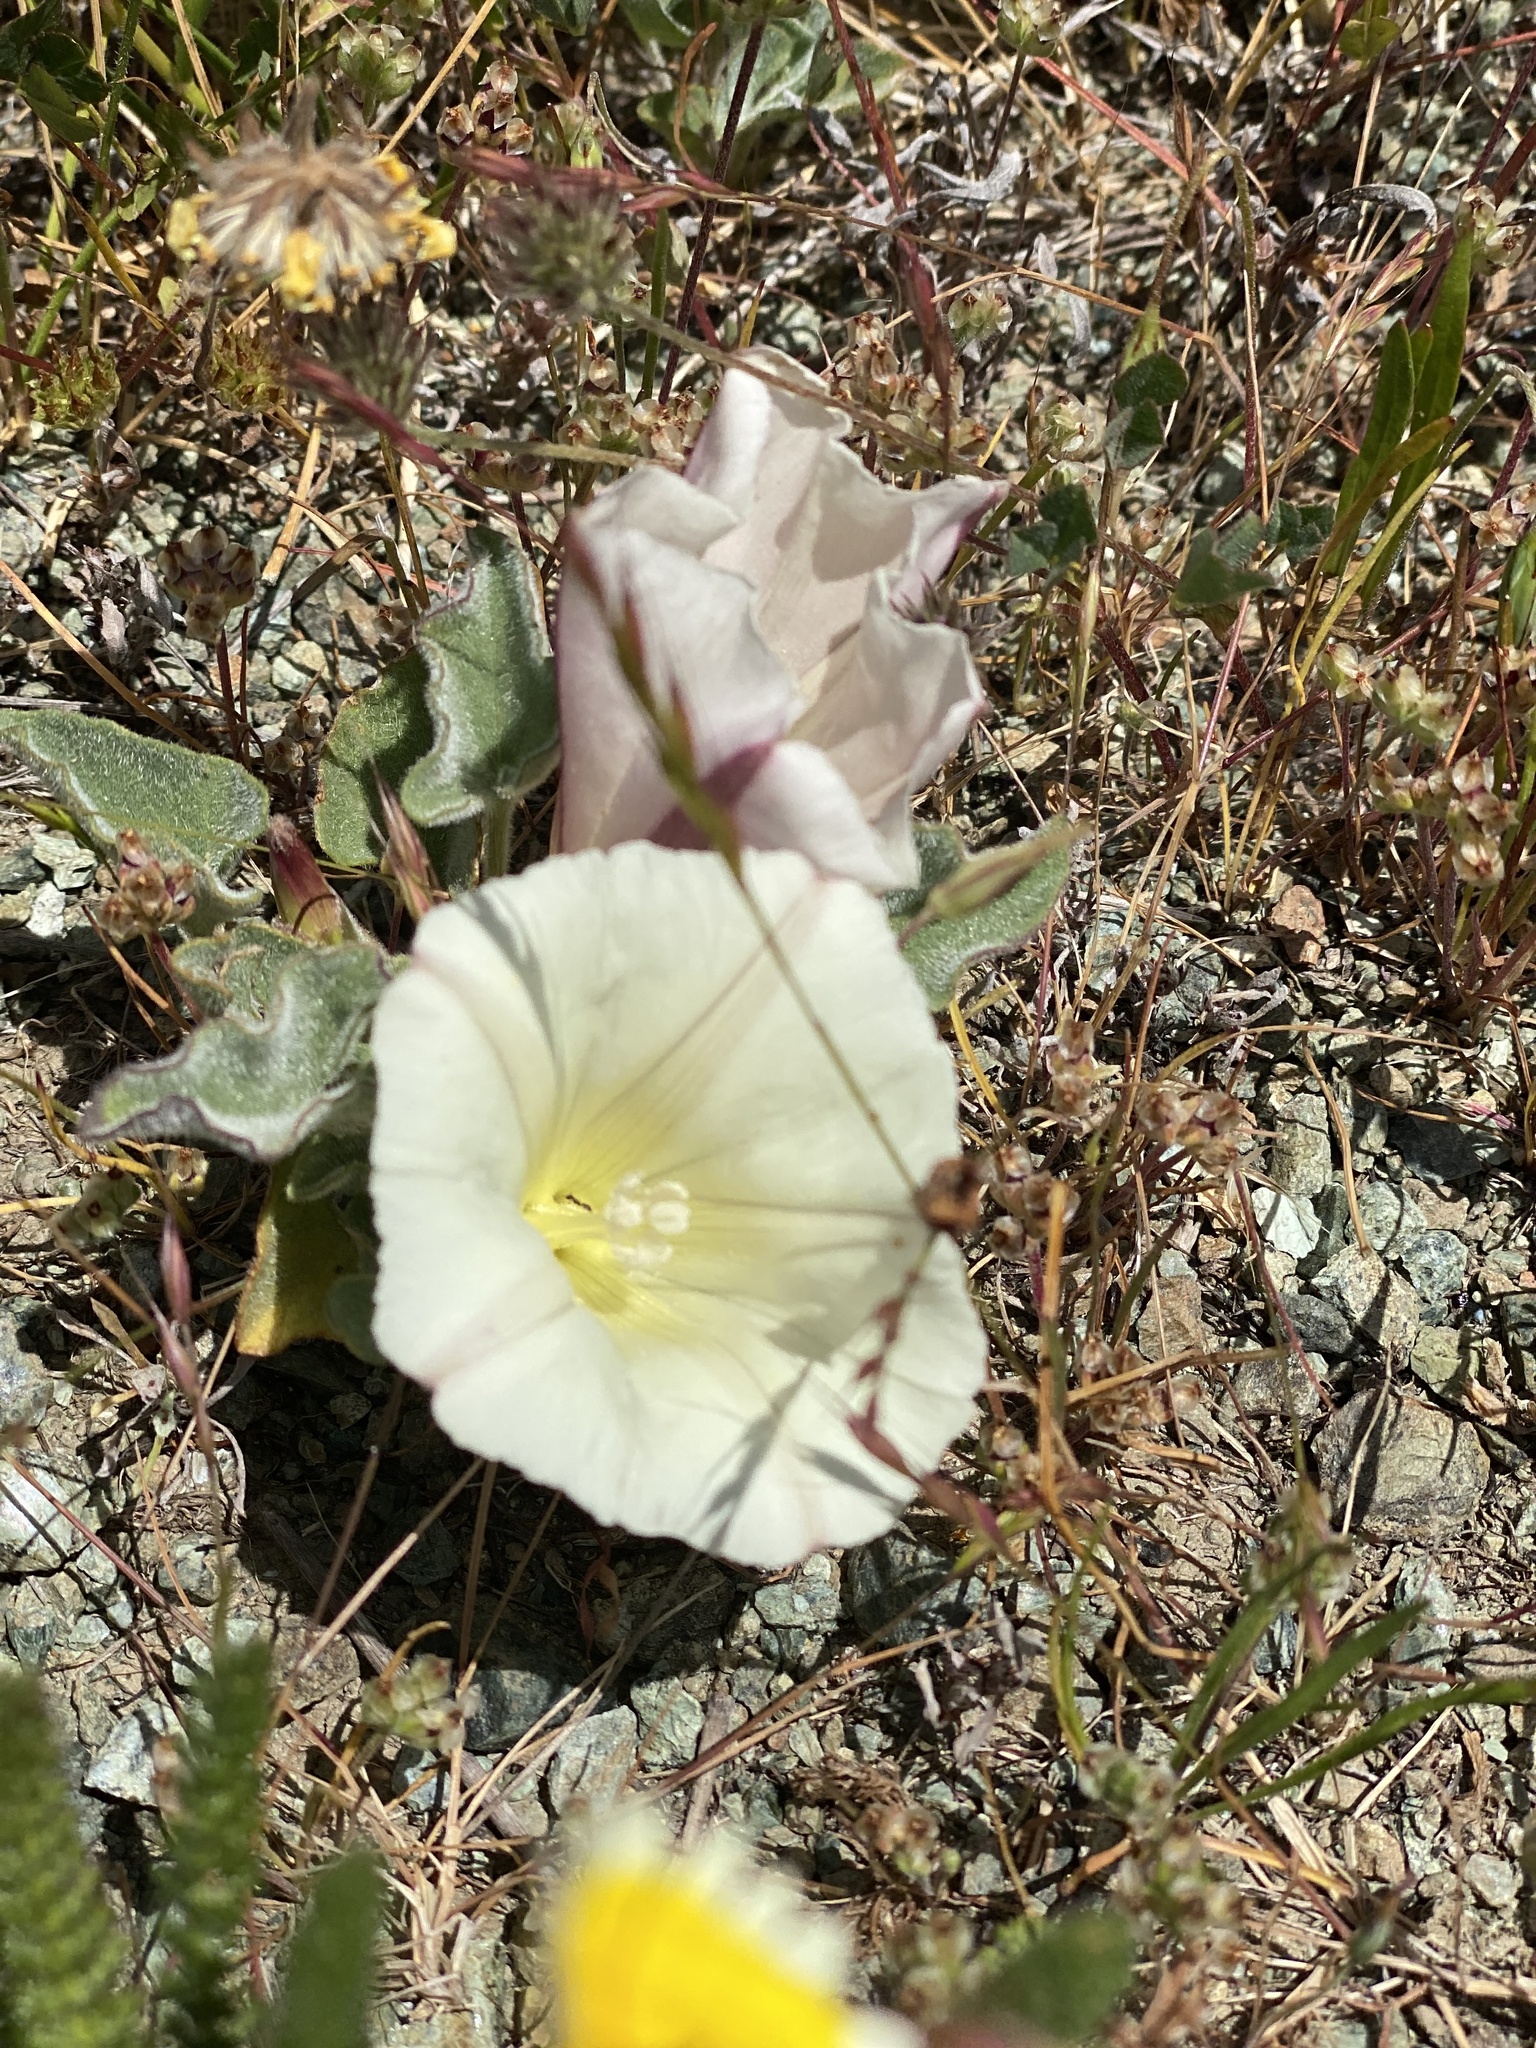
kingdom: Plantae
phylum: Tracheophyta
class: Magnoliopsida
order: Solanales
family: Convolvulaceae
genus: Calystegia
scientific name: Calystegia collina
